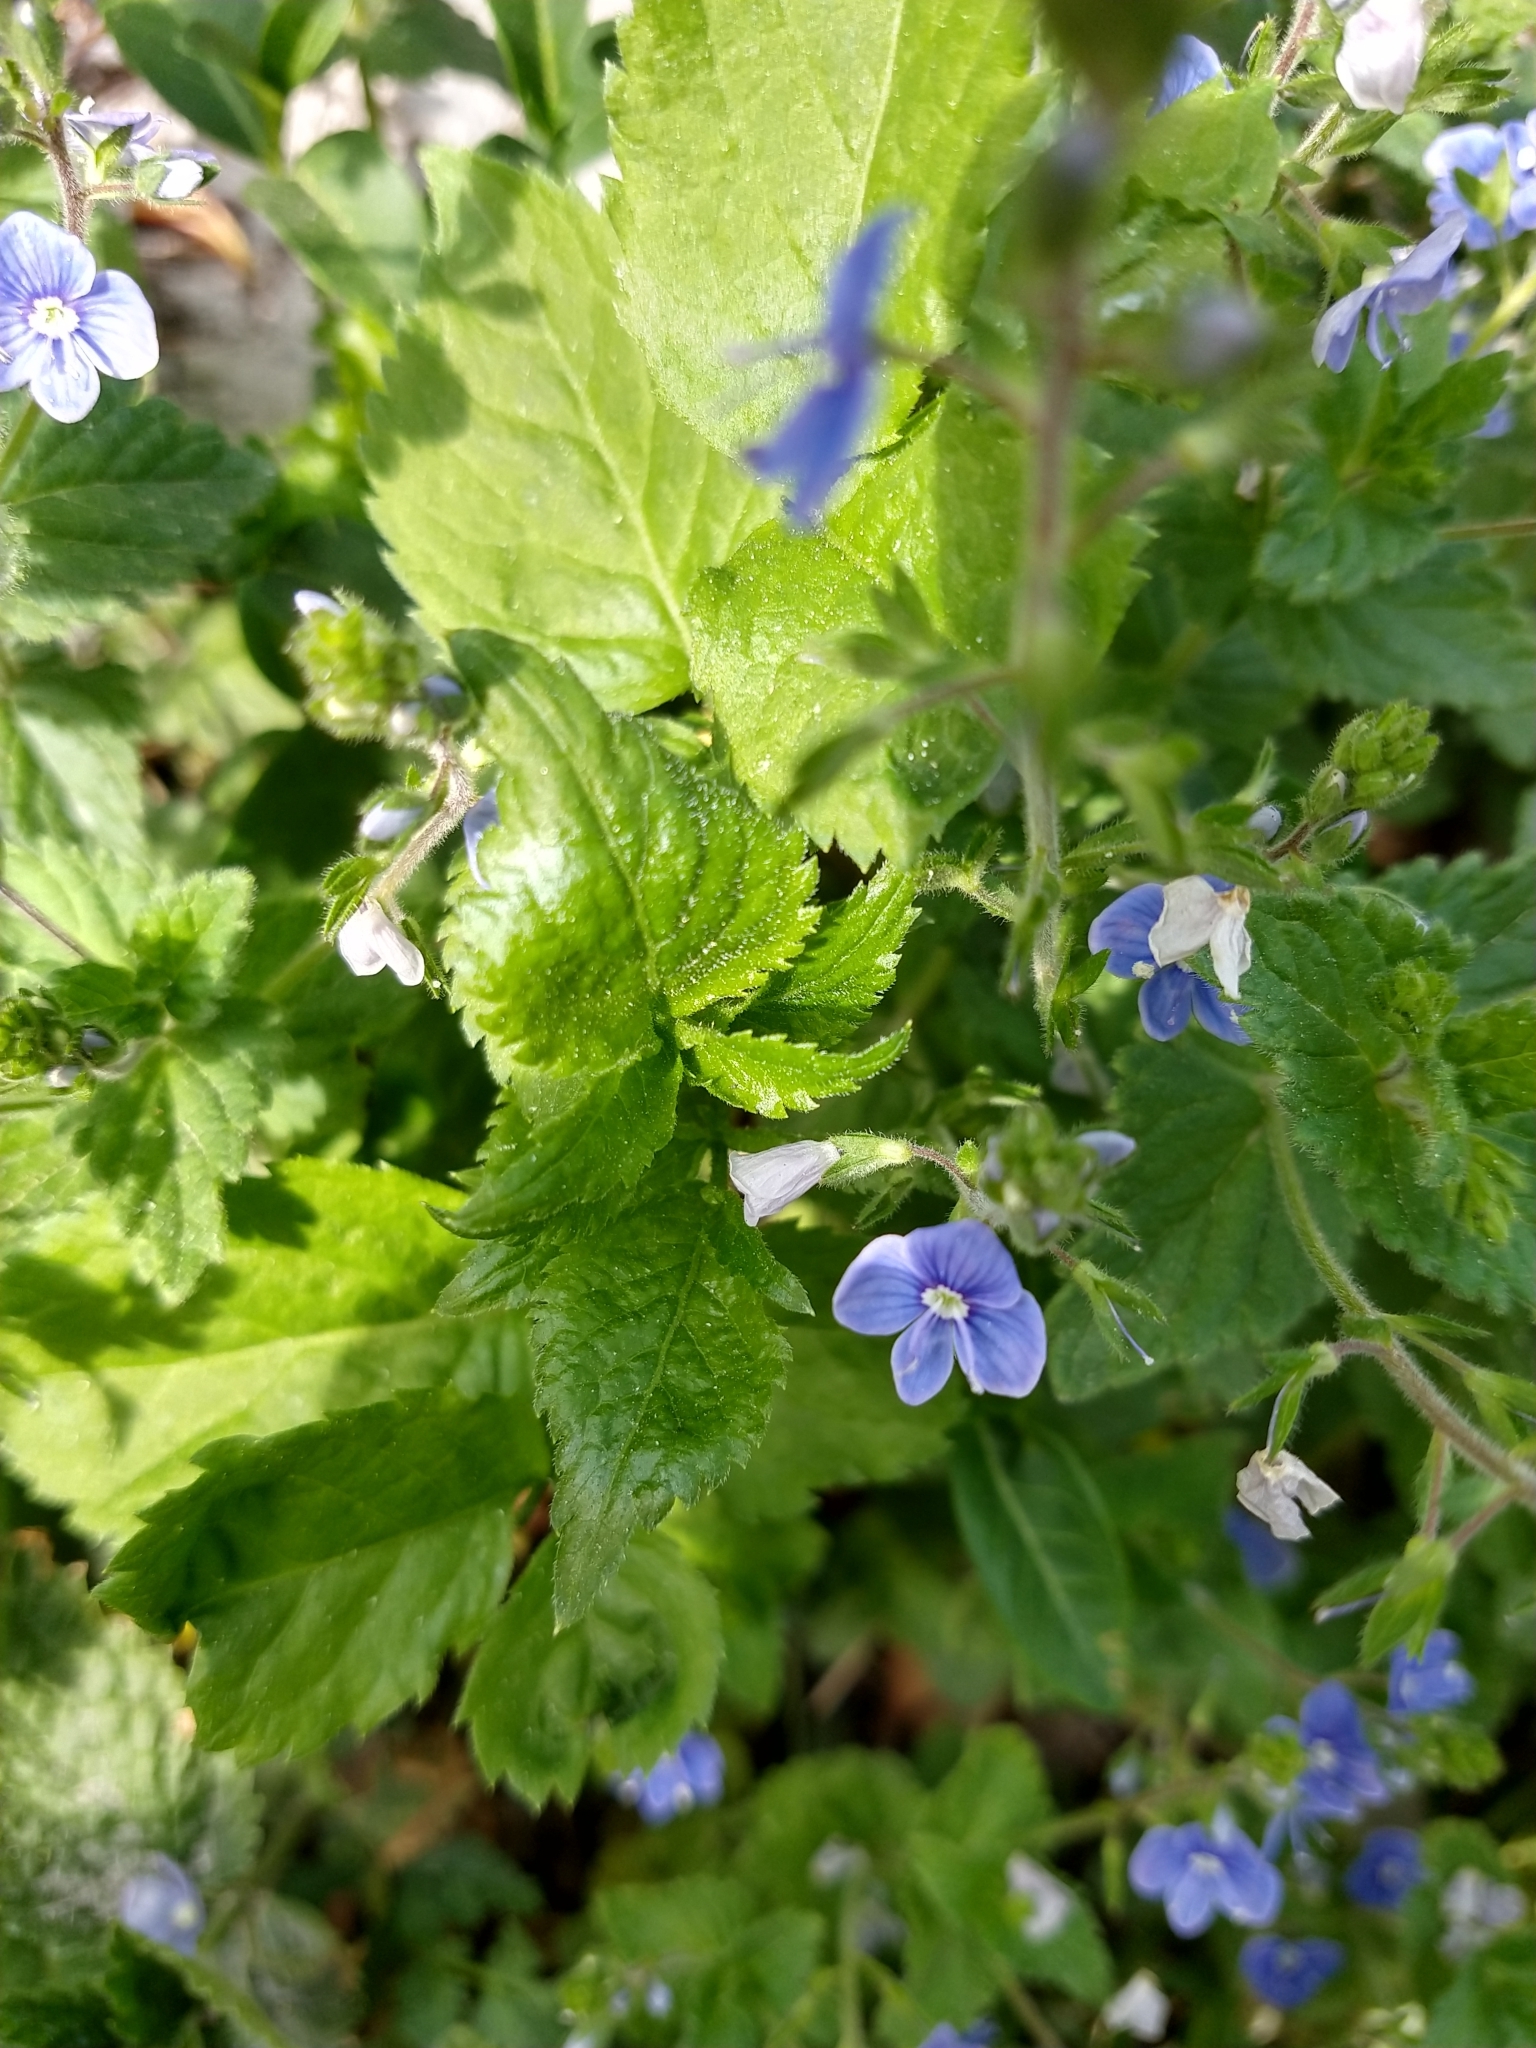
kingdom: Plantae
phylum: Tracheophyta
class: Magnoliopsida
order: Lamiales
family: Plantaginaceae
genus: Veronica
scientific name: Veronica chamaedrys
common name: Germander speedwell
